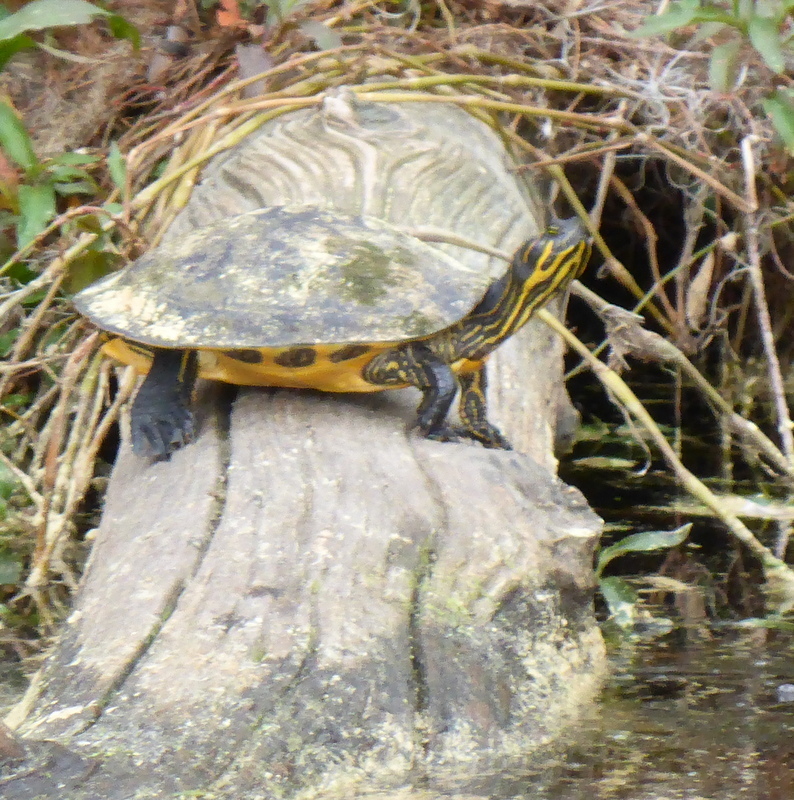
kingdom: Animalia
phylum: Chordata
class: Testudines
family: Emydidae
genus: Pseudemys
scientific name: Pseudemys concinna
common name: Eastern river cooter
